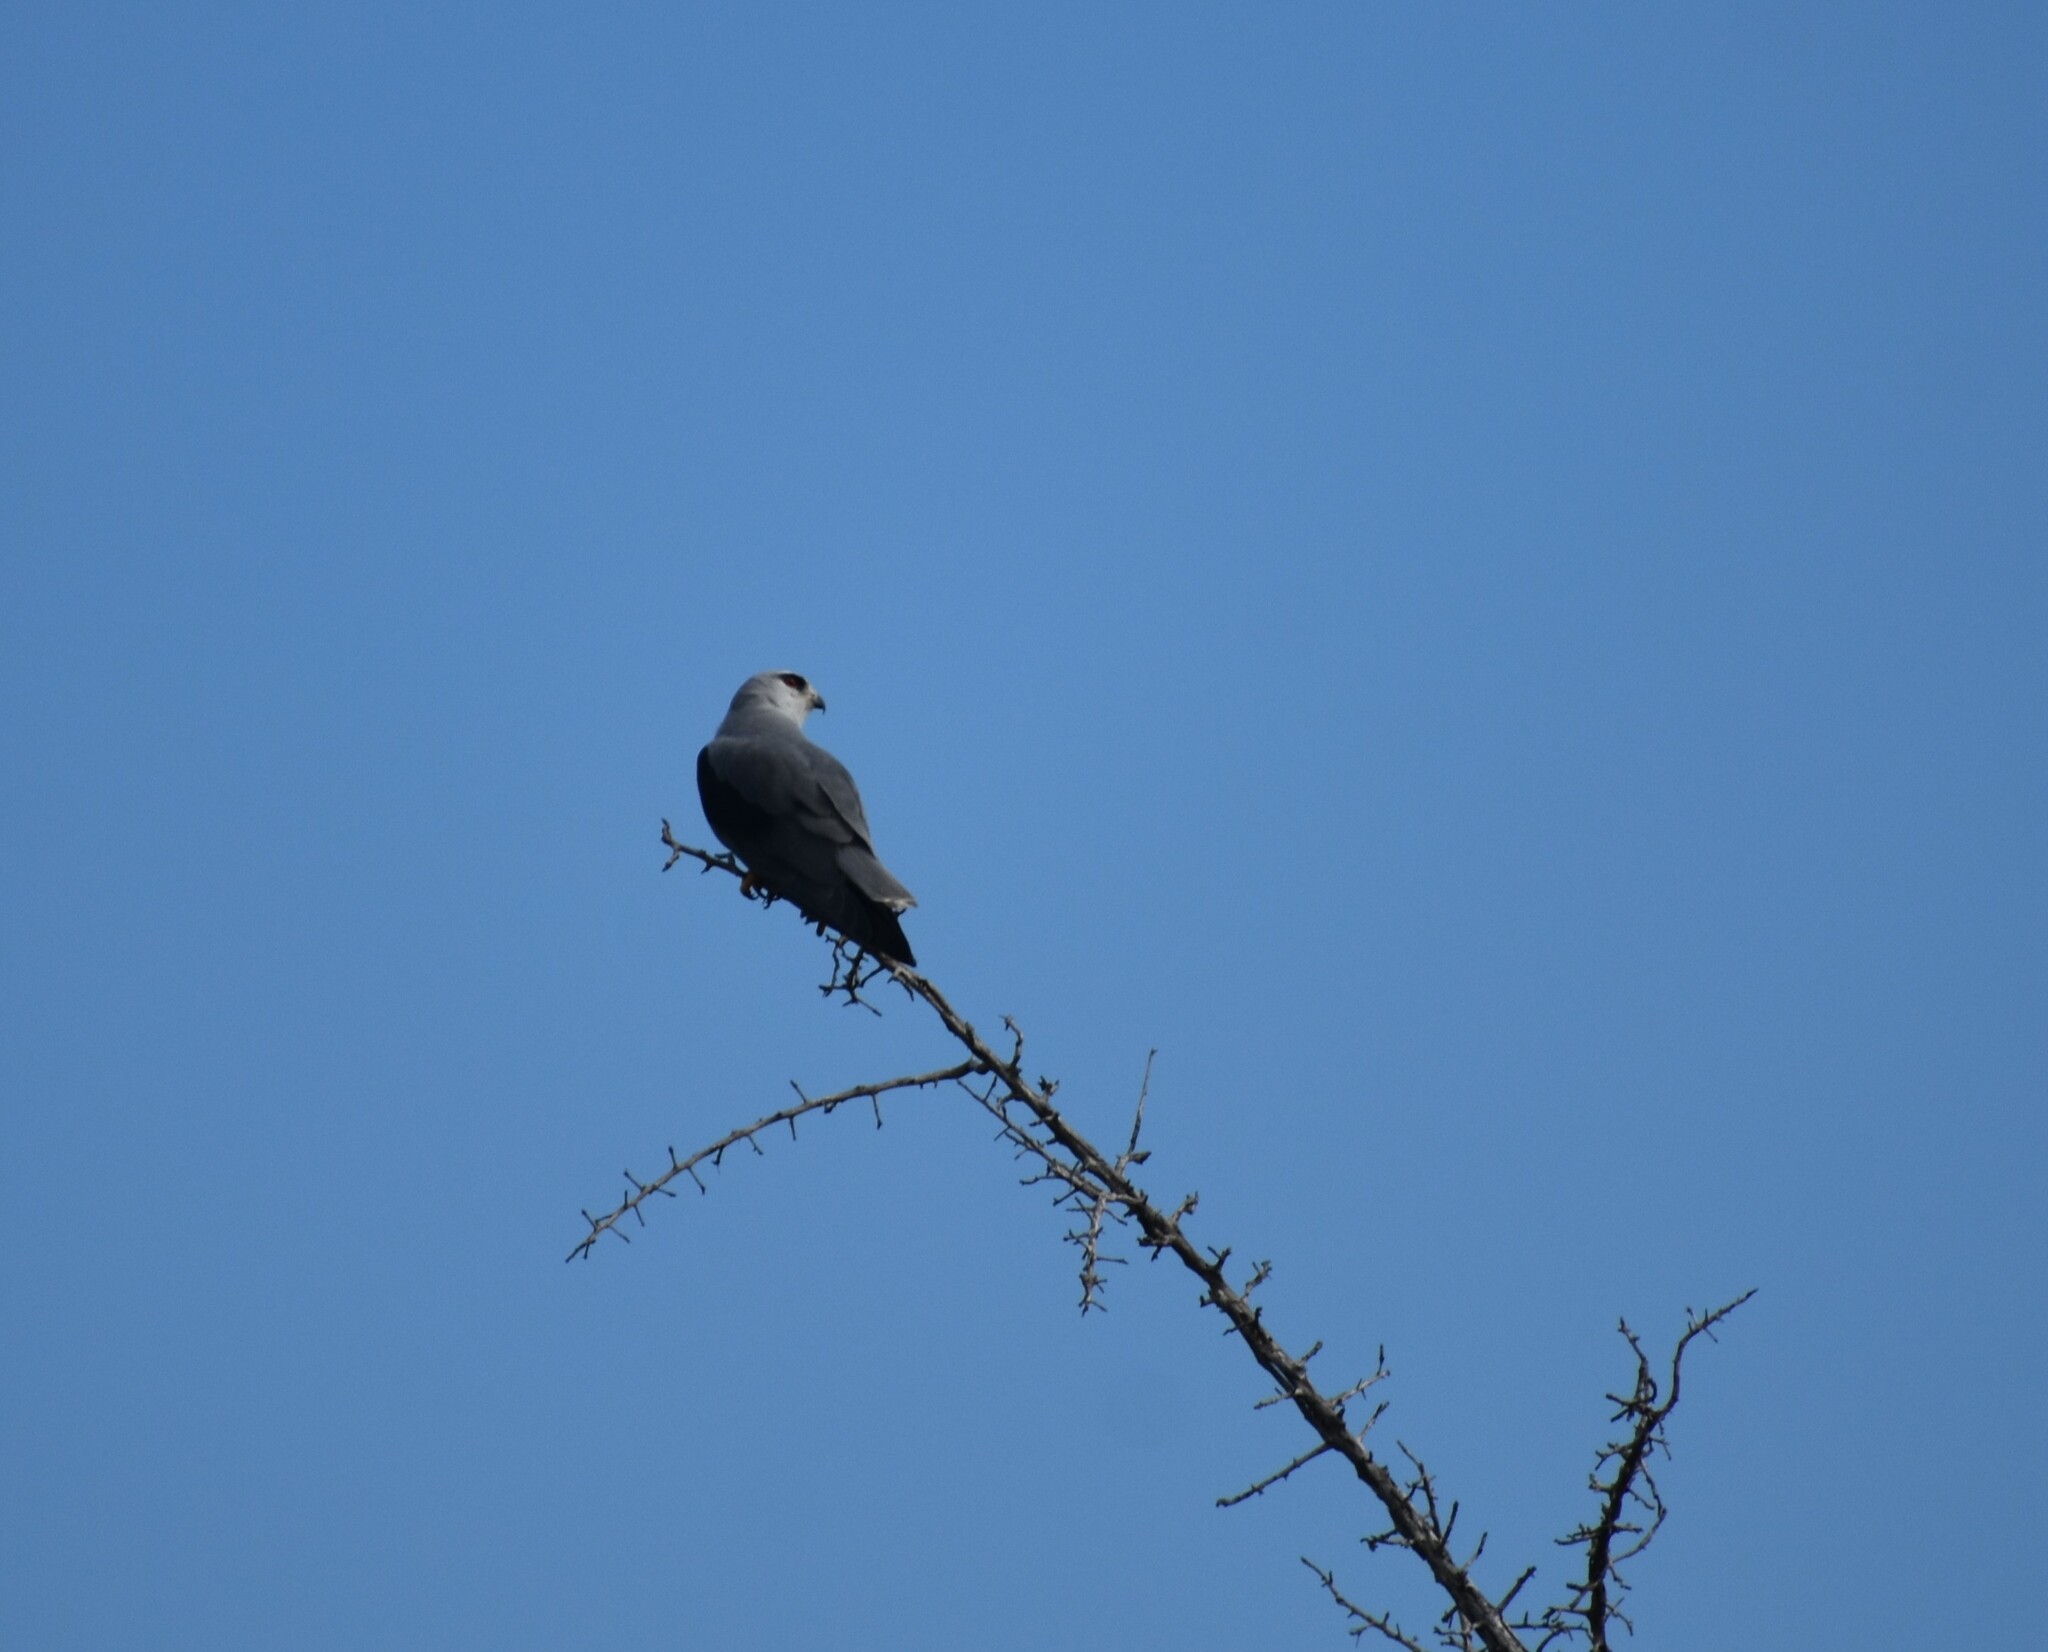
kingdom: Animalia
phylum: Chordata
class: Aves
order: Accipitriformes
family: Accipitridae
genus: Elanus
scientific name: Elanus caeruleus
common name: Black-winged kite
